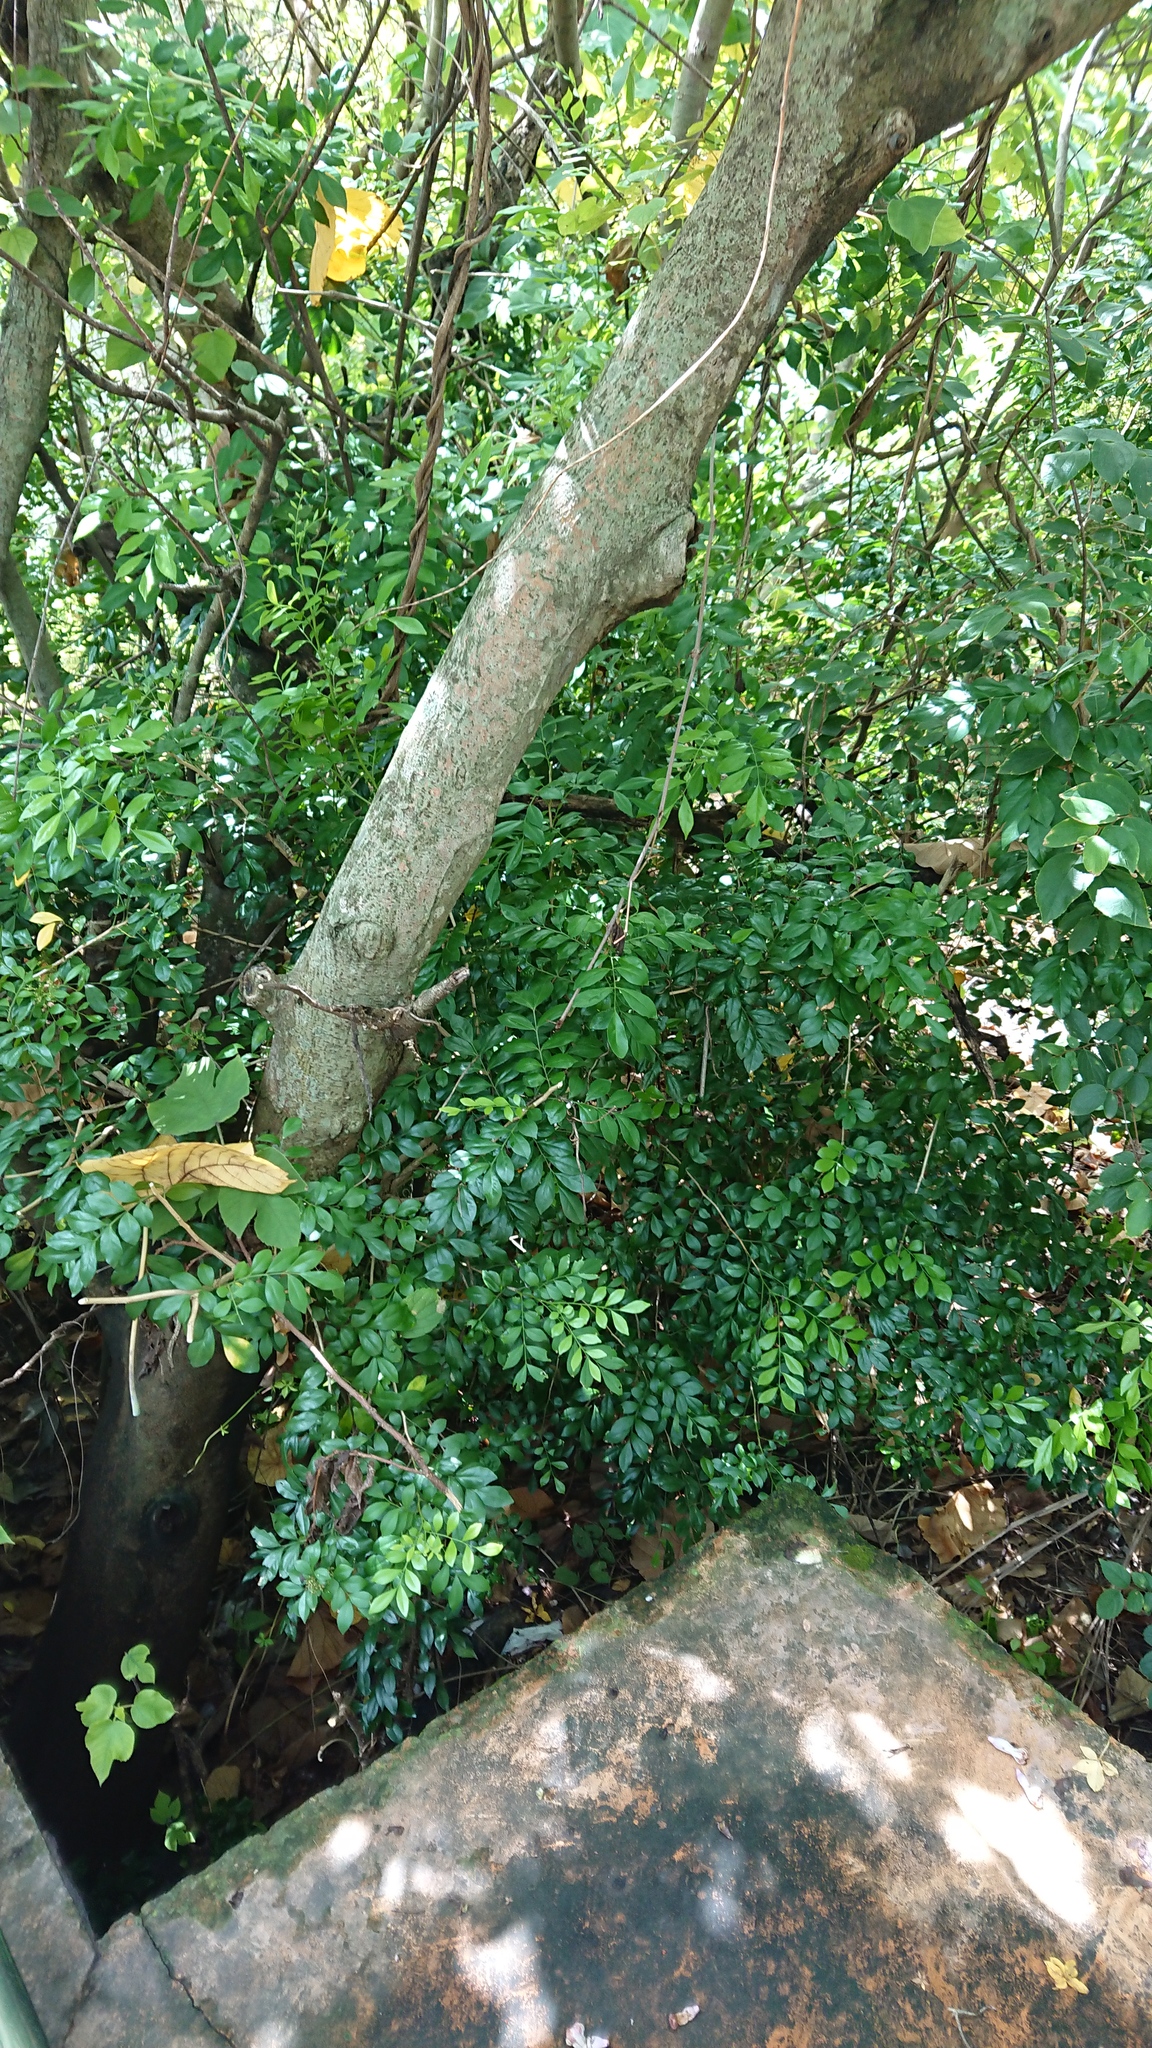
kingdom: Plantae
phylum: Tracheophyta
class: Magnoliopsida
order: Sapindales
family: Rutaceae
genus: Murraya
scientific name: Murraya paniculata
